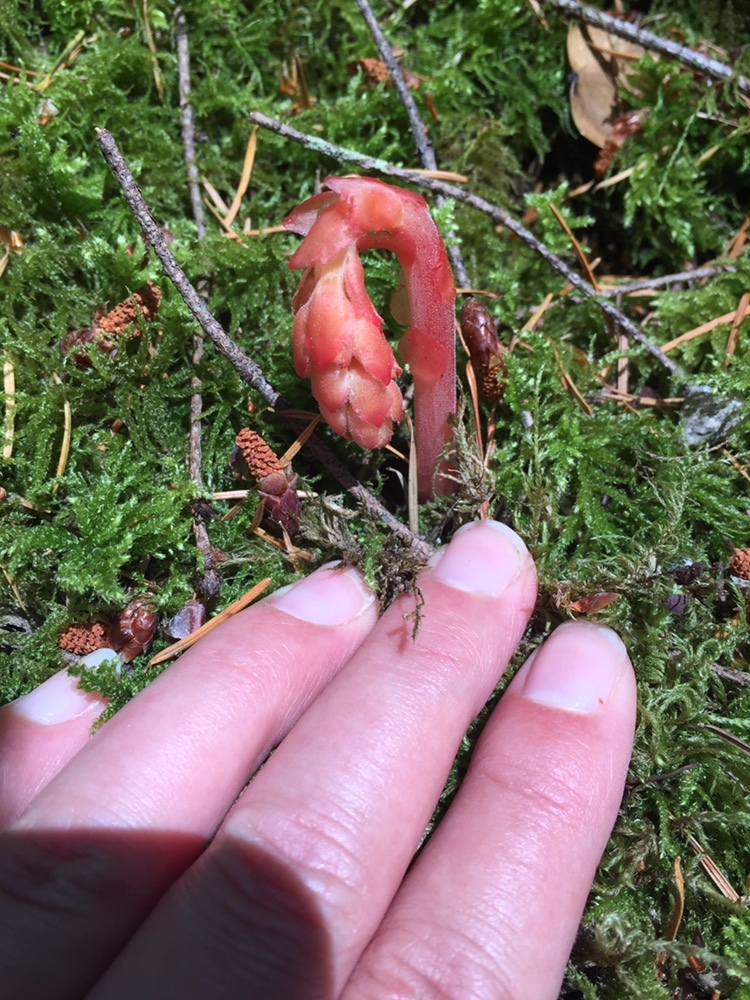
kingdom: Plantae
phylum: Tracheophyta
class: Magnoliopsida
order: Ericales
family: Ericaceae
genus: Hypopitys
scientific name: Hypopitys monotropa
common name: Yellow bird's-nest
